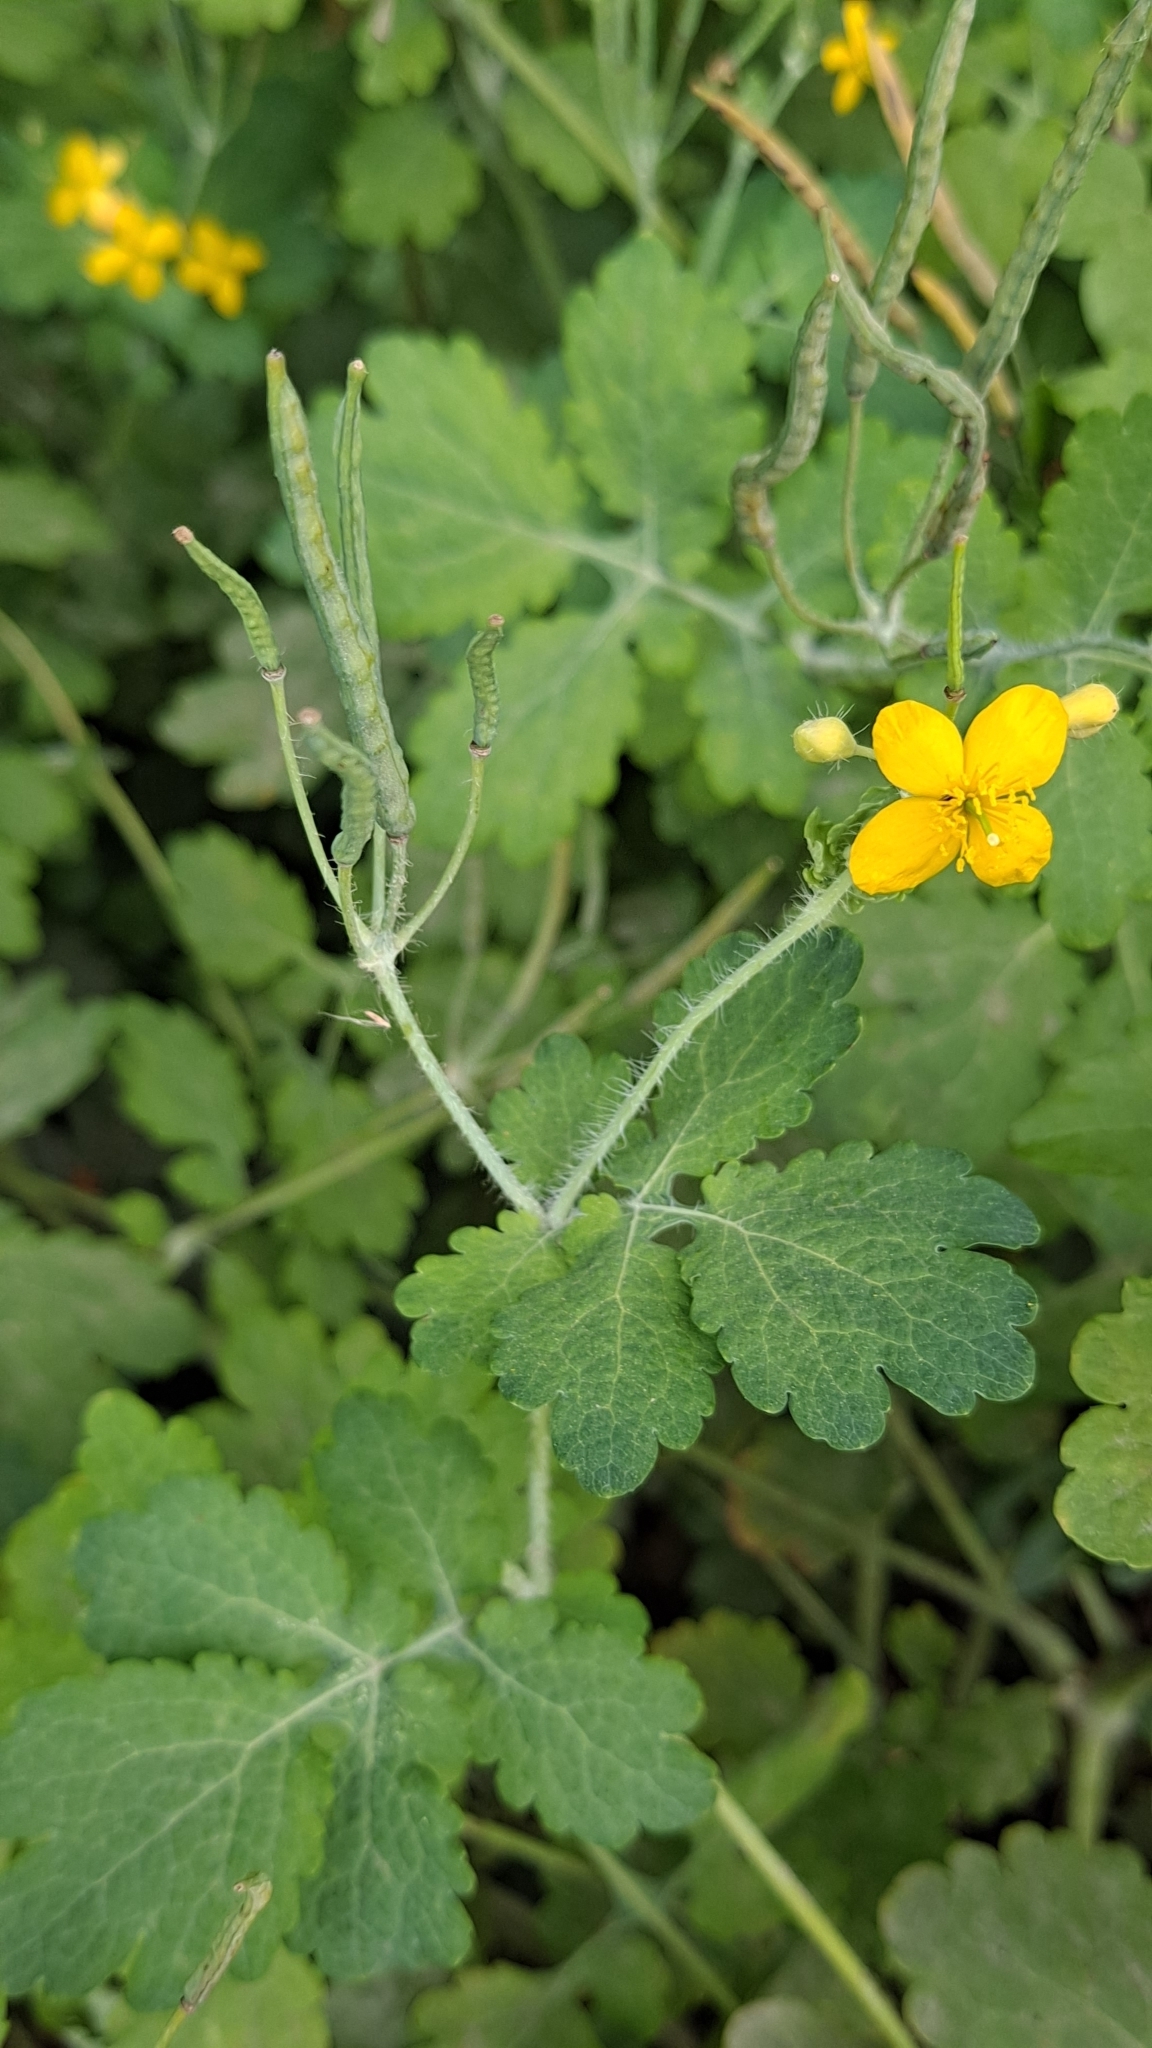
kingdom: Plantae
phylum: Tracheophyta
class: Magnoliopsida
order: Ranunculales
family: Papaveraceae
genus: Chelidonium
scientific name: Chelidonium majus
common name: Greater celandine
